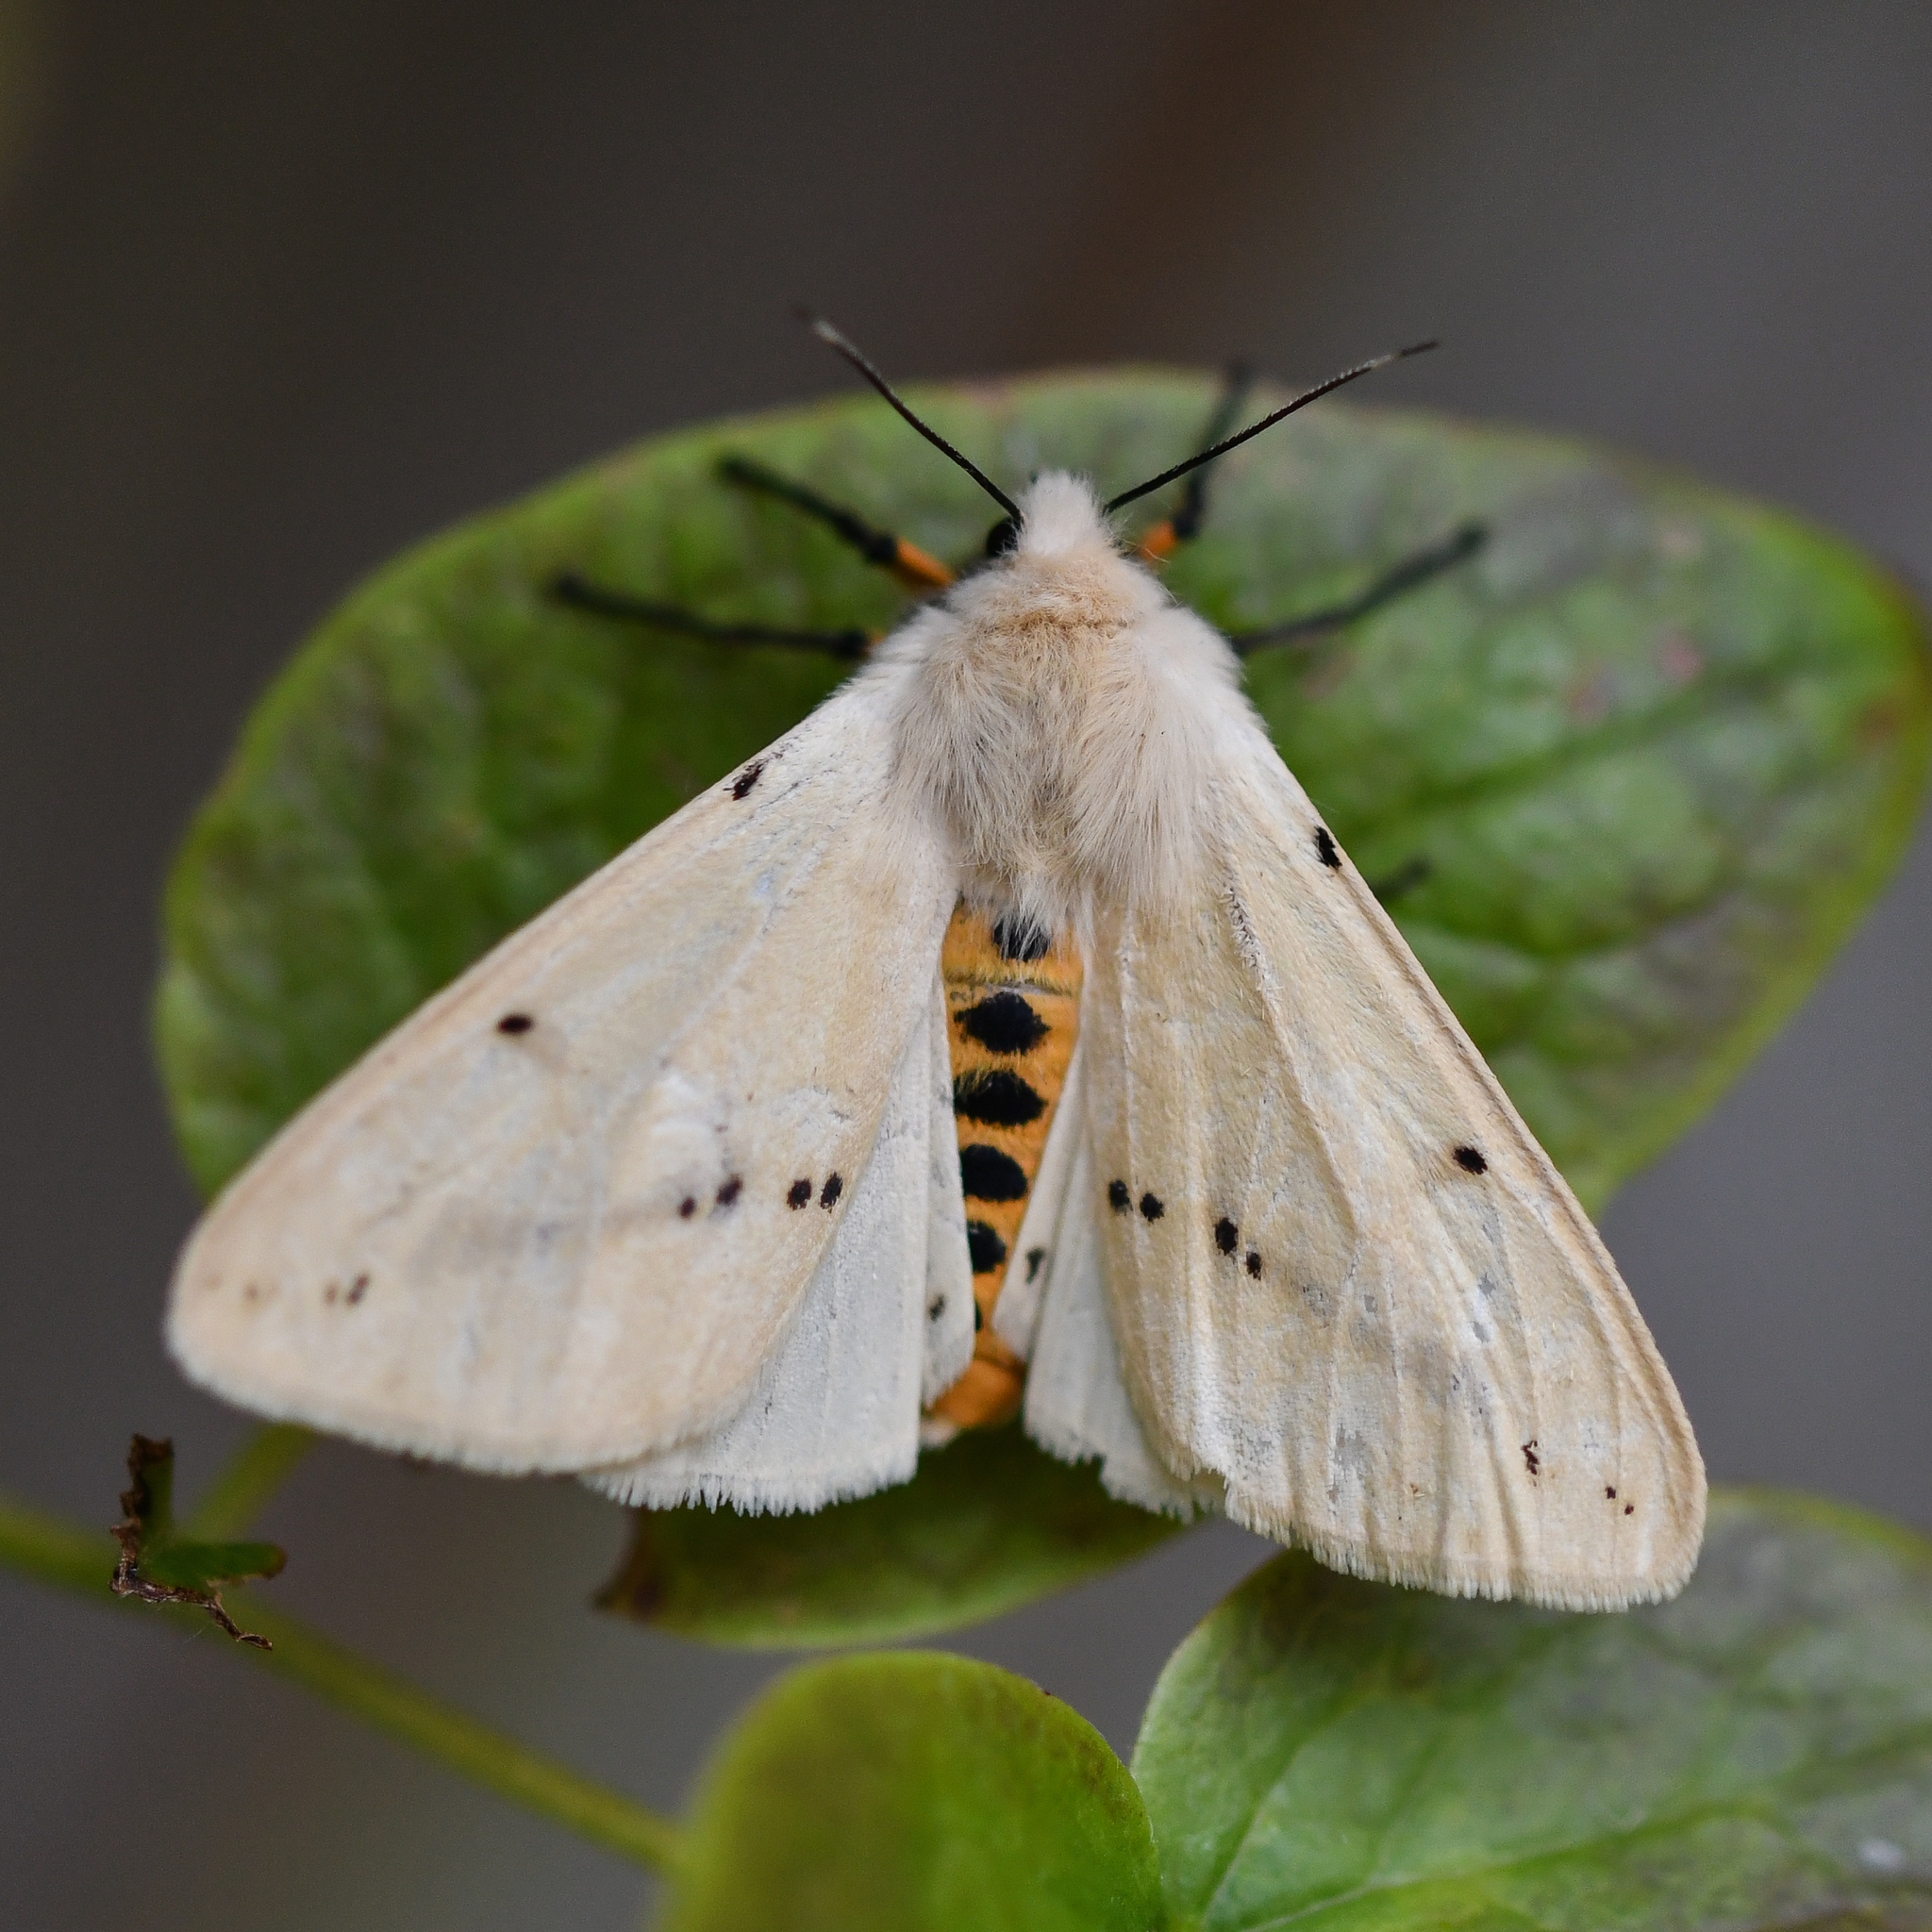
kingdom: Animalia
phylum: Arthropoda
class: Insecta
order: Lepidoptera
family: Erebidae
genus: Spilarctia
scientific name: Spilarctia lutea
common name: Buff ermine
